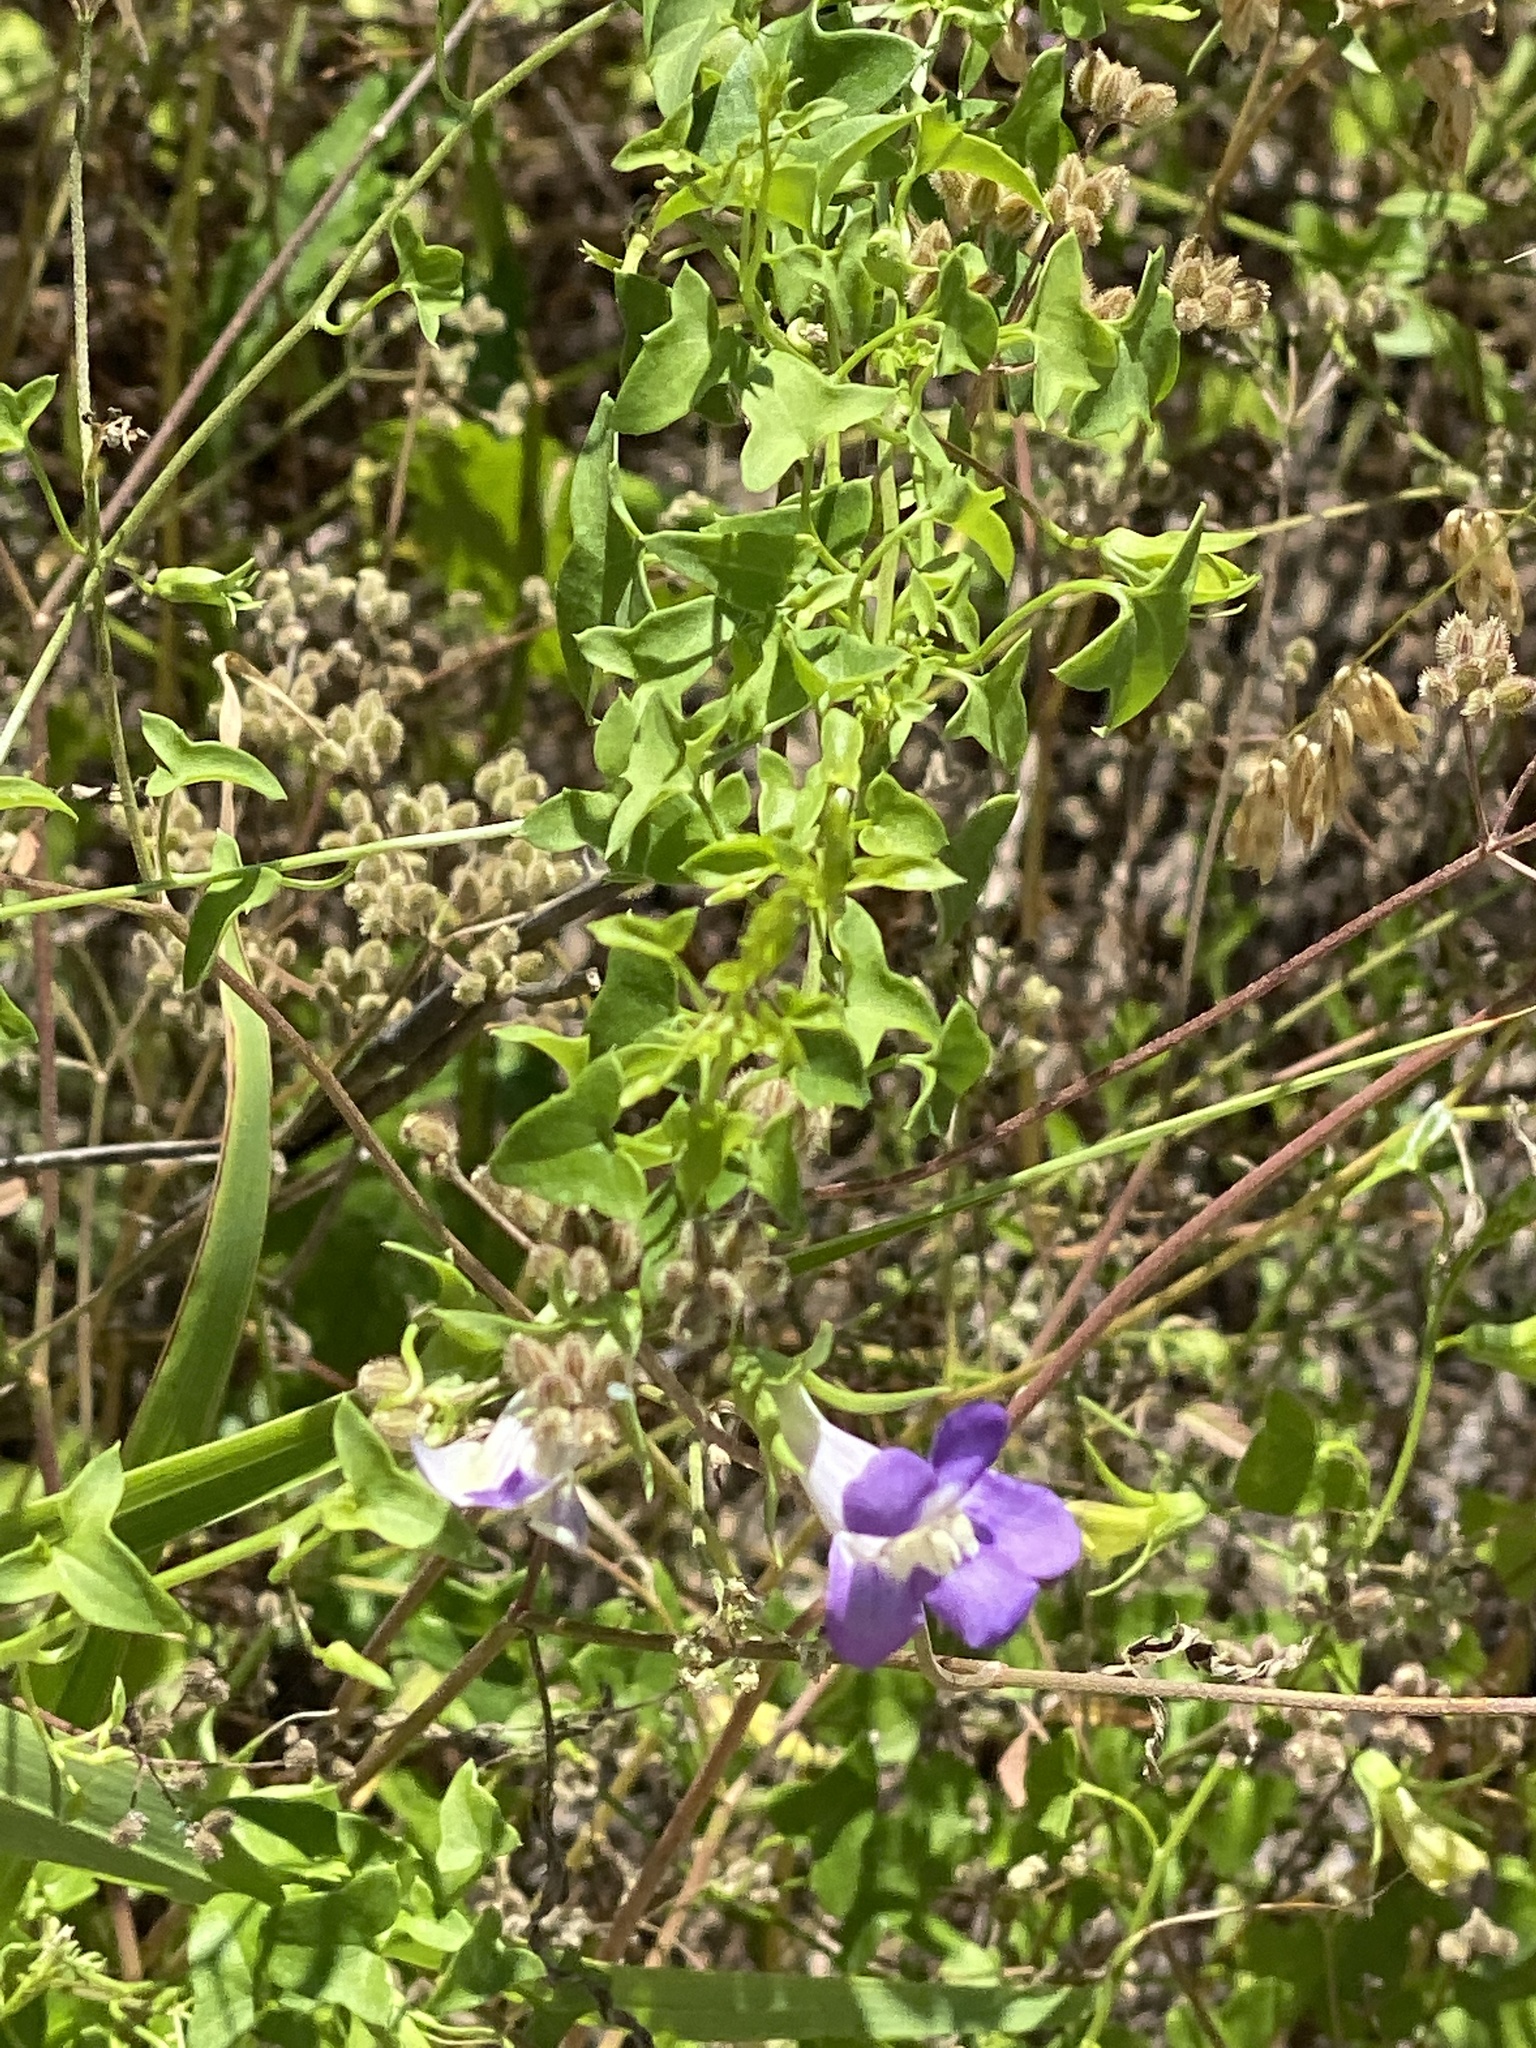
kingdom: Plantae
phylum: Tracheophyta
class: Magnoliopsida
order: Lamiales
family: Plantaginaceae
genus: Maurandella
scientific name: Maurandella antirrhiniflora
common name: Violet twining-snapdragon
